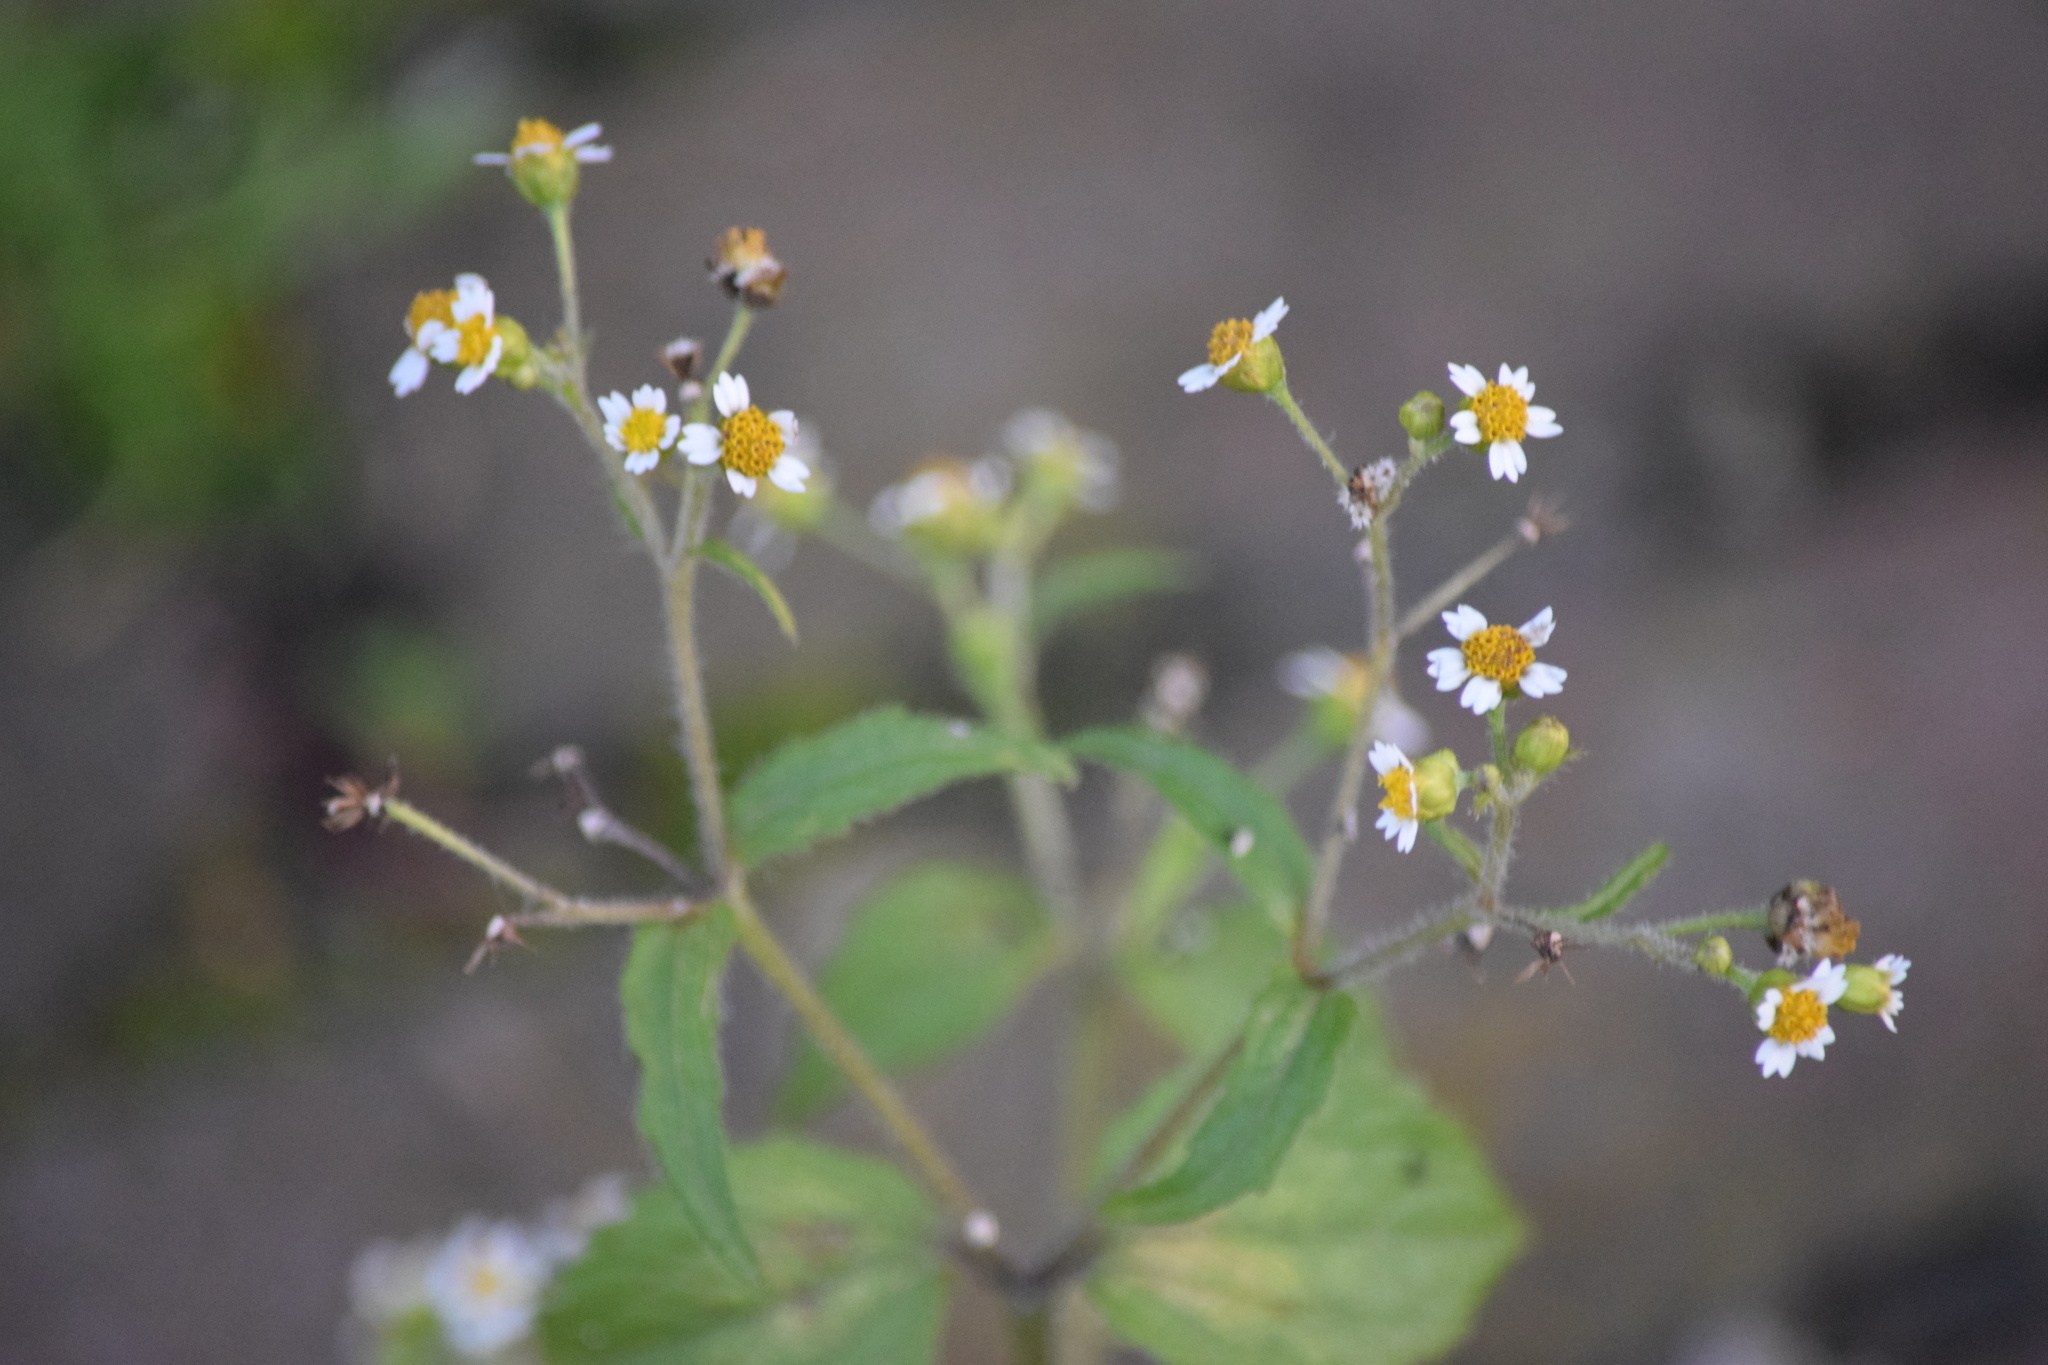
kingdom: Plantae
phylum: Tracheophyta
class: Magnoliopsida
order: Asterales
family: Asteraceae
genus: Galinsoga
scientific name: Galinsoga quadriradiata
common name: Shaggy soldier
